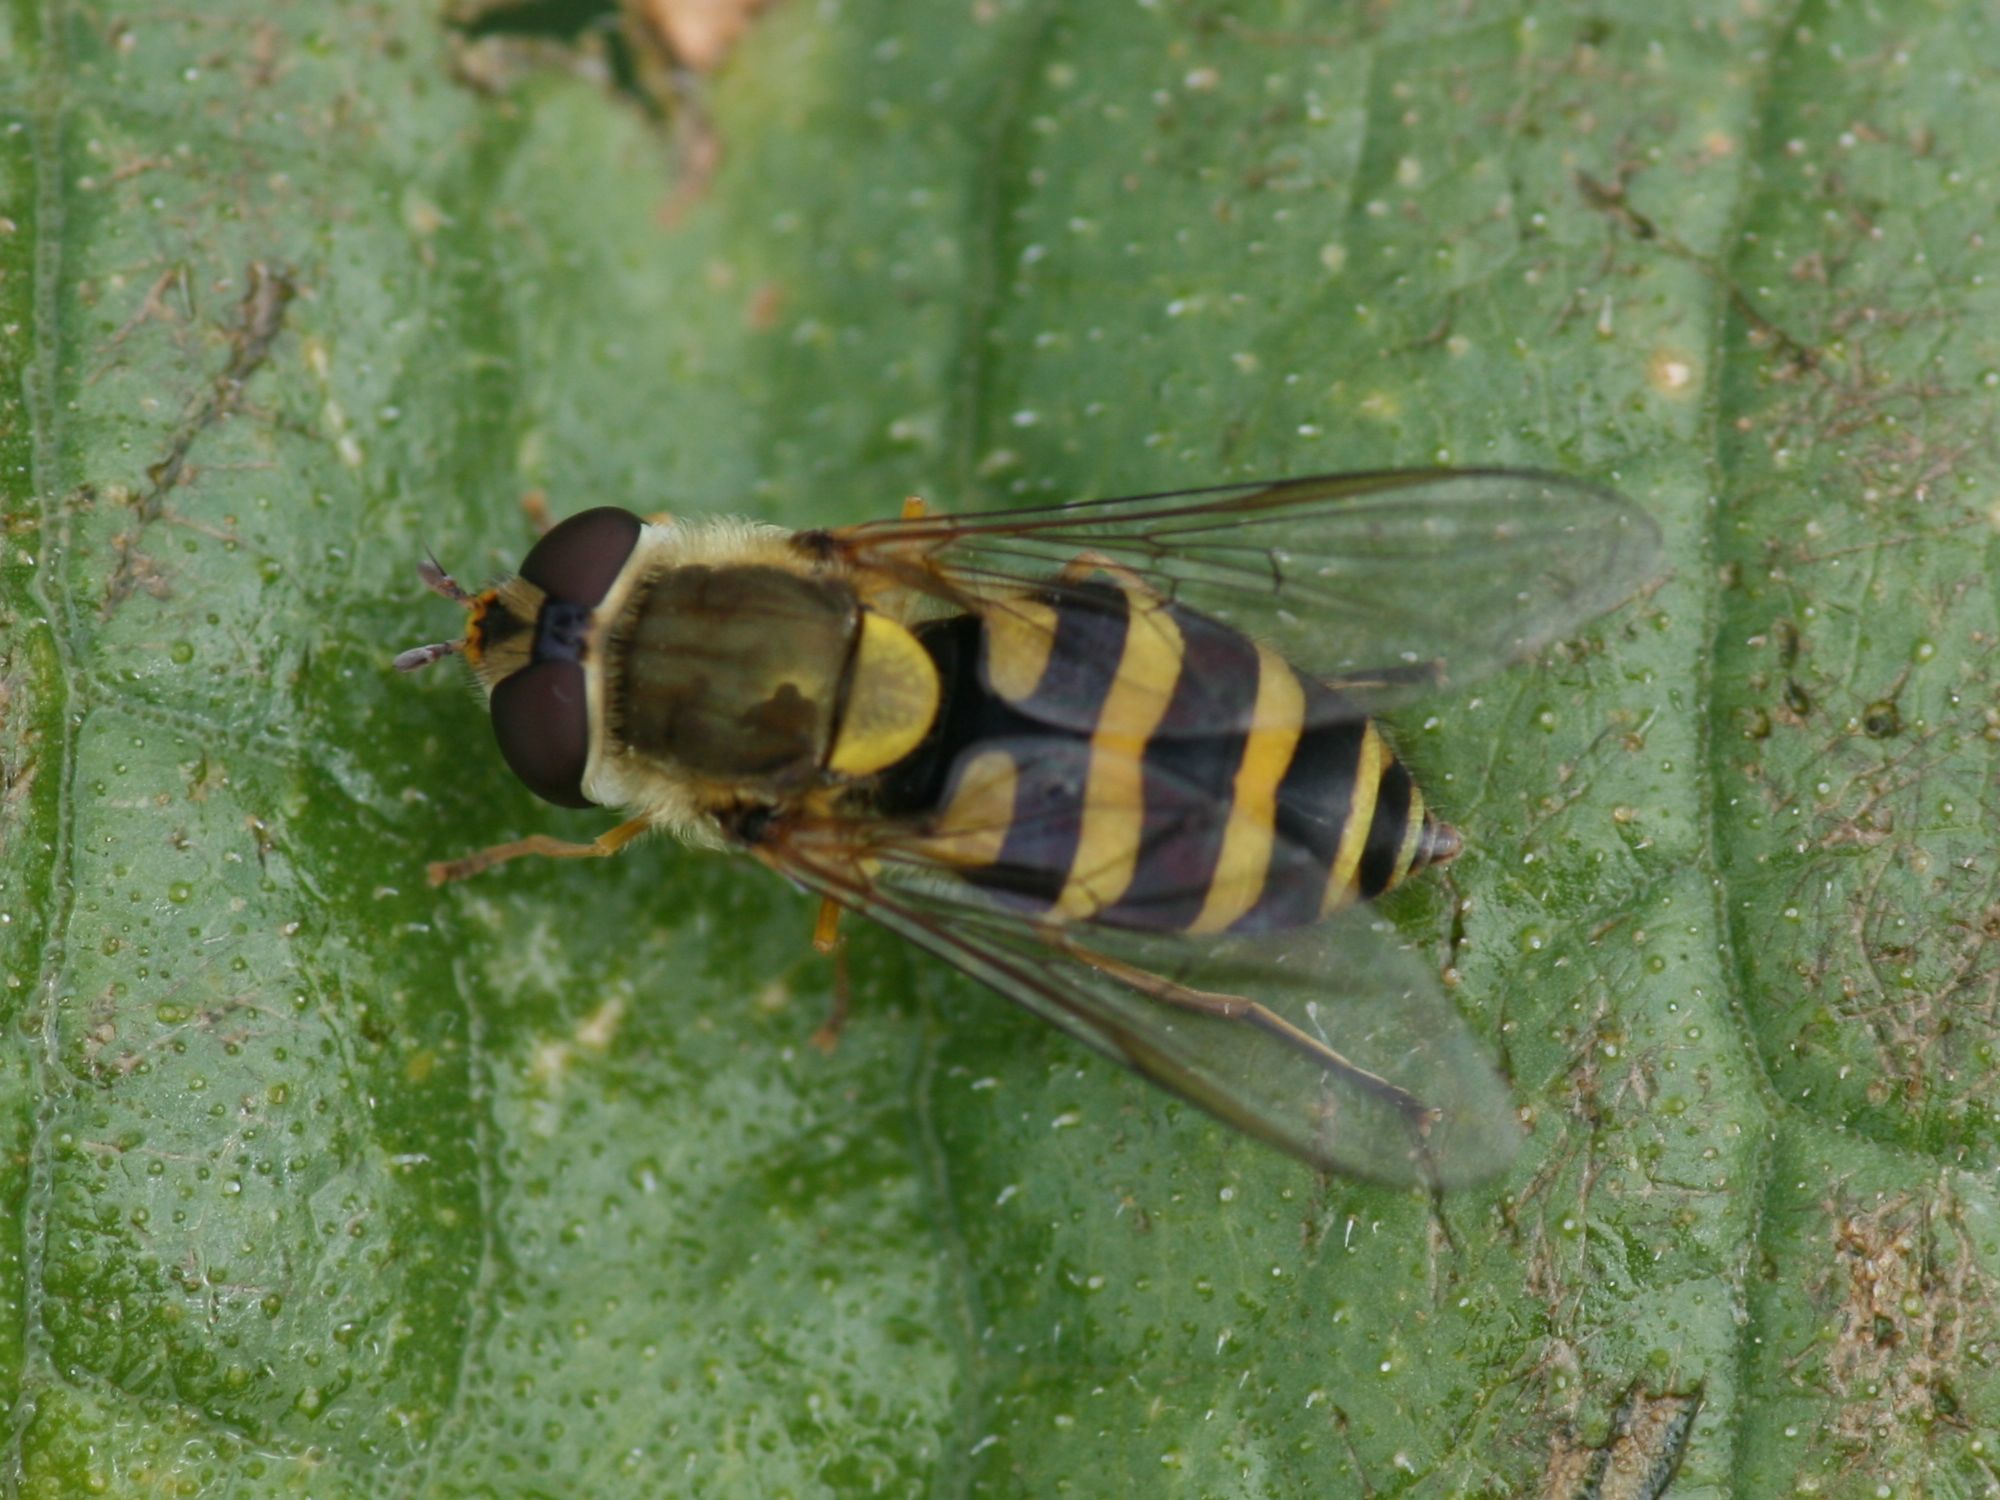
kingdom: Animalia
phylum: Arthropoda
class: Insecta
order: Diptera
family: Syrphidae
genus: Syrphus
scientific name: Syrphus
